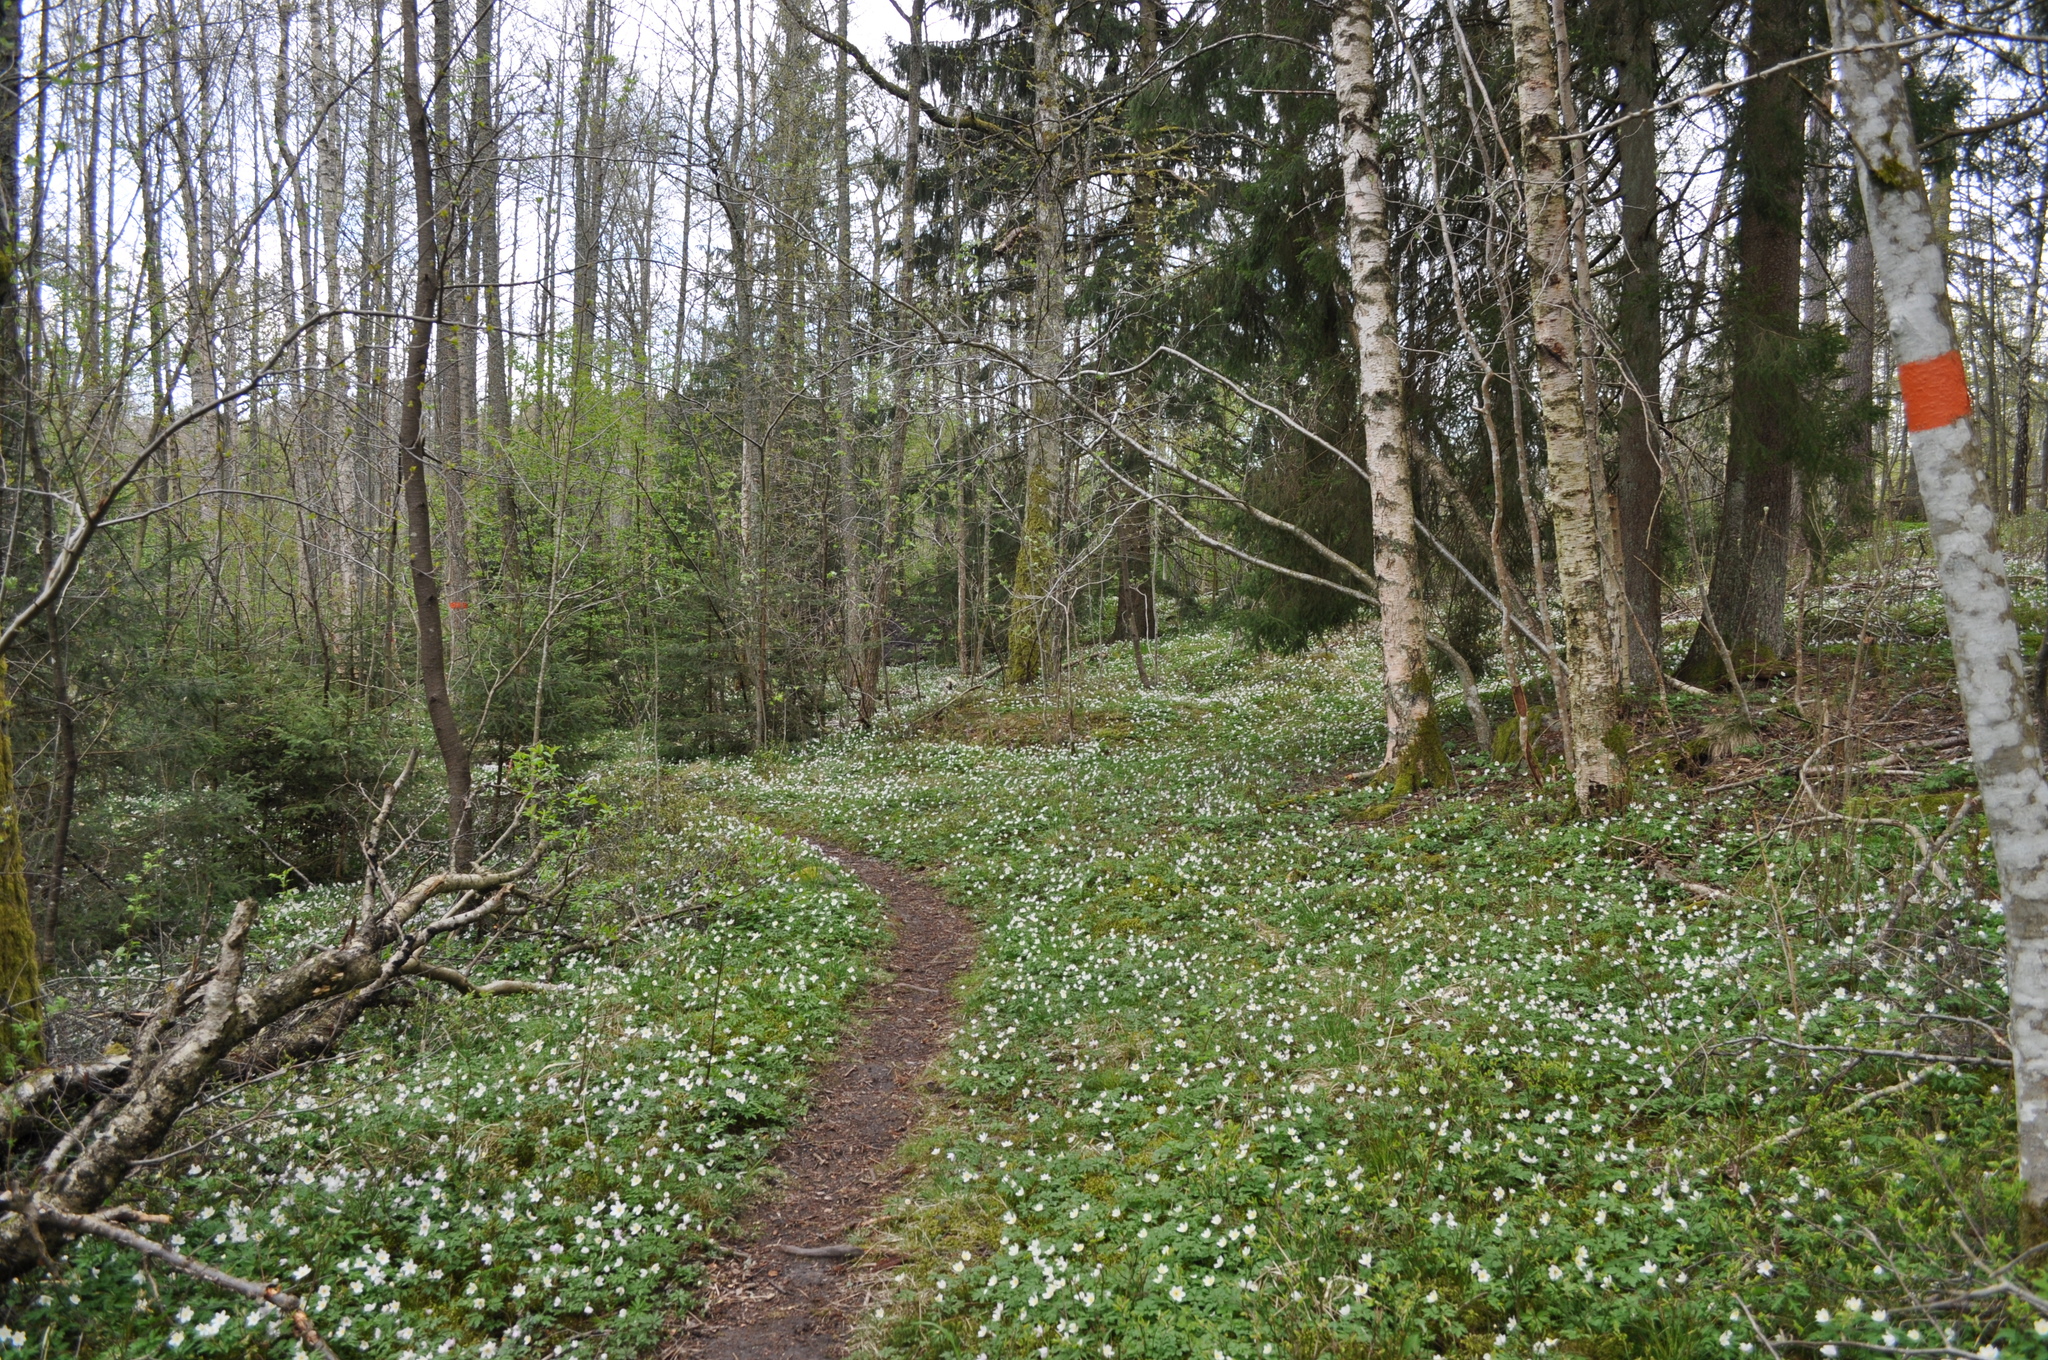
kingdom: Plantae
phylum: Tracheophyta
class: Magnoliopsida
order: Ranunculales
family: Ranunculaceae
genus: Anemone
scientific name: Anemone nemorosa
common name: Wood anemone
